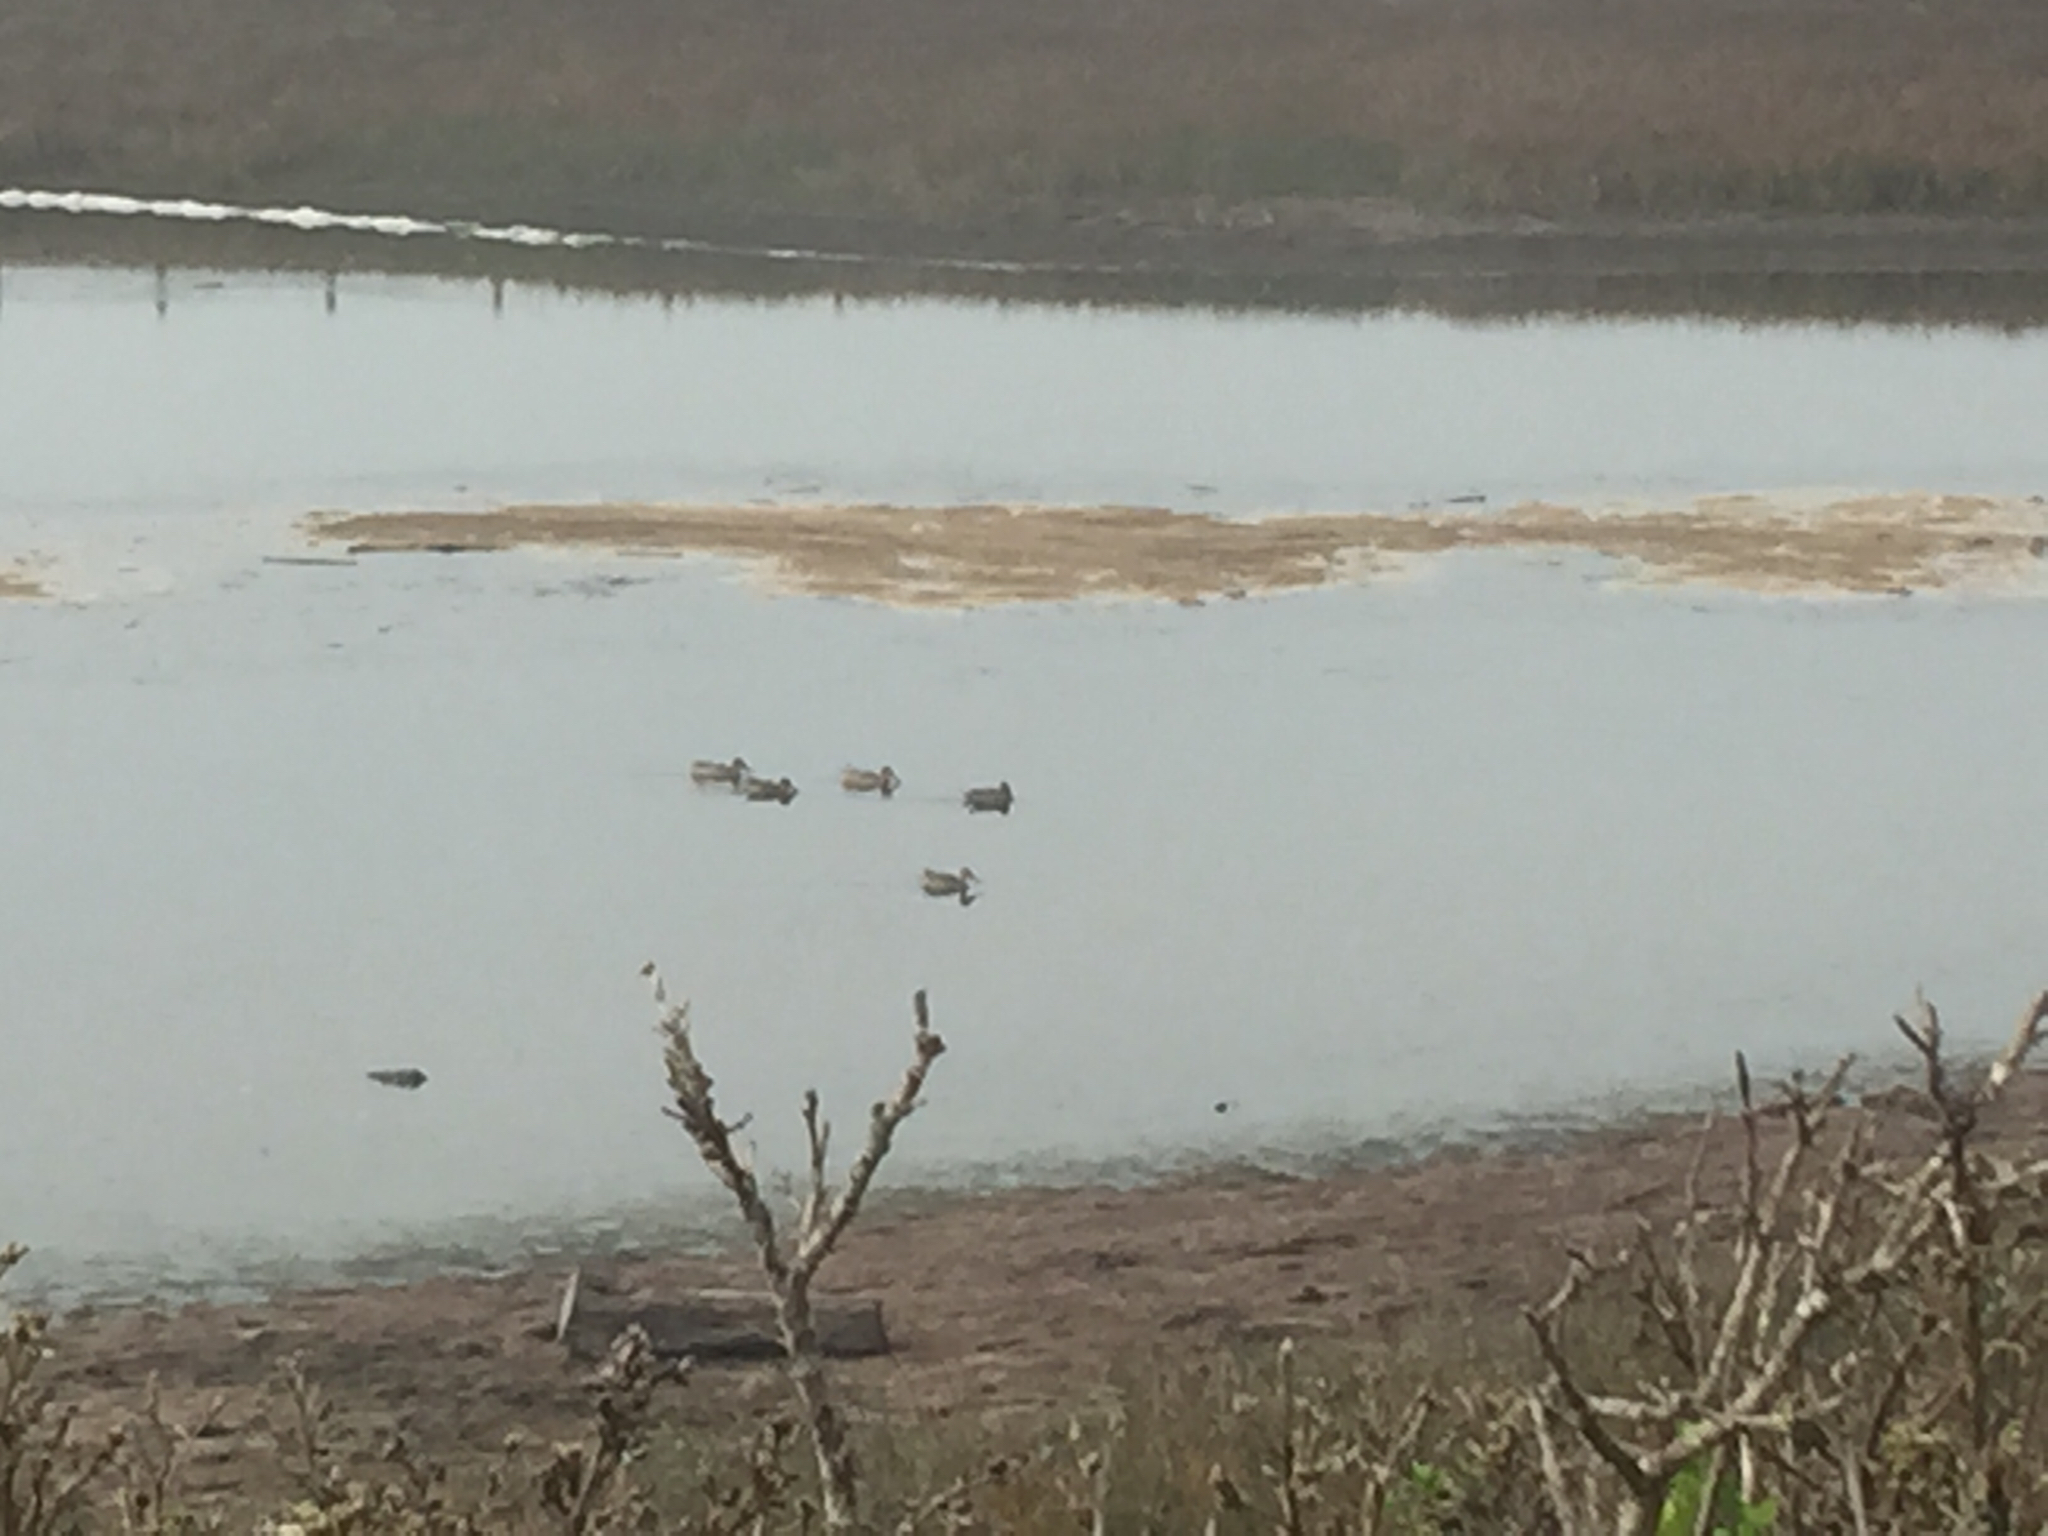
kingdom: Animalia
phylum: Chordata
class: Aves
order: Anseriformes
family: Anatidae
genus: Spatula
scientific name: Spatula clypeata
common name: Northern shoveler
